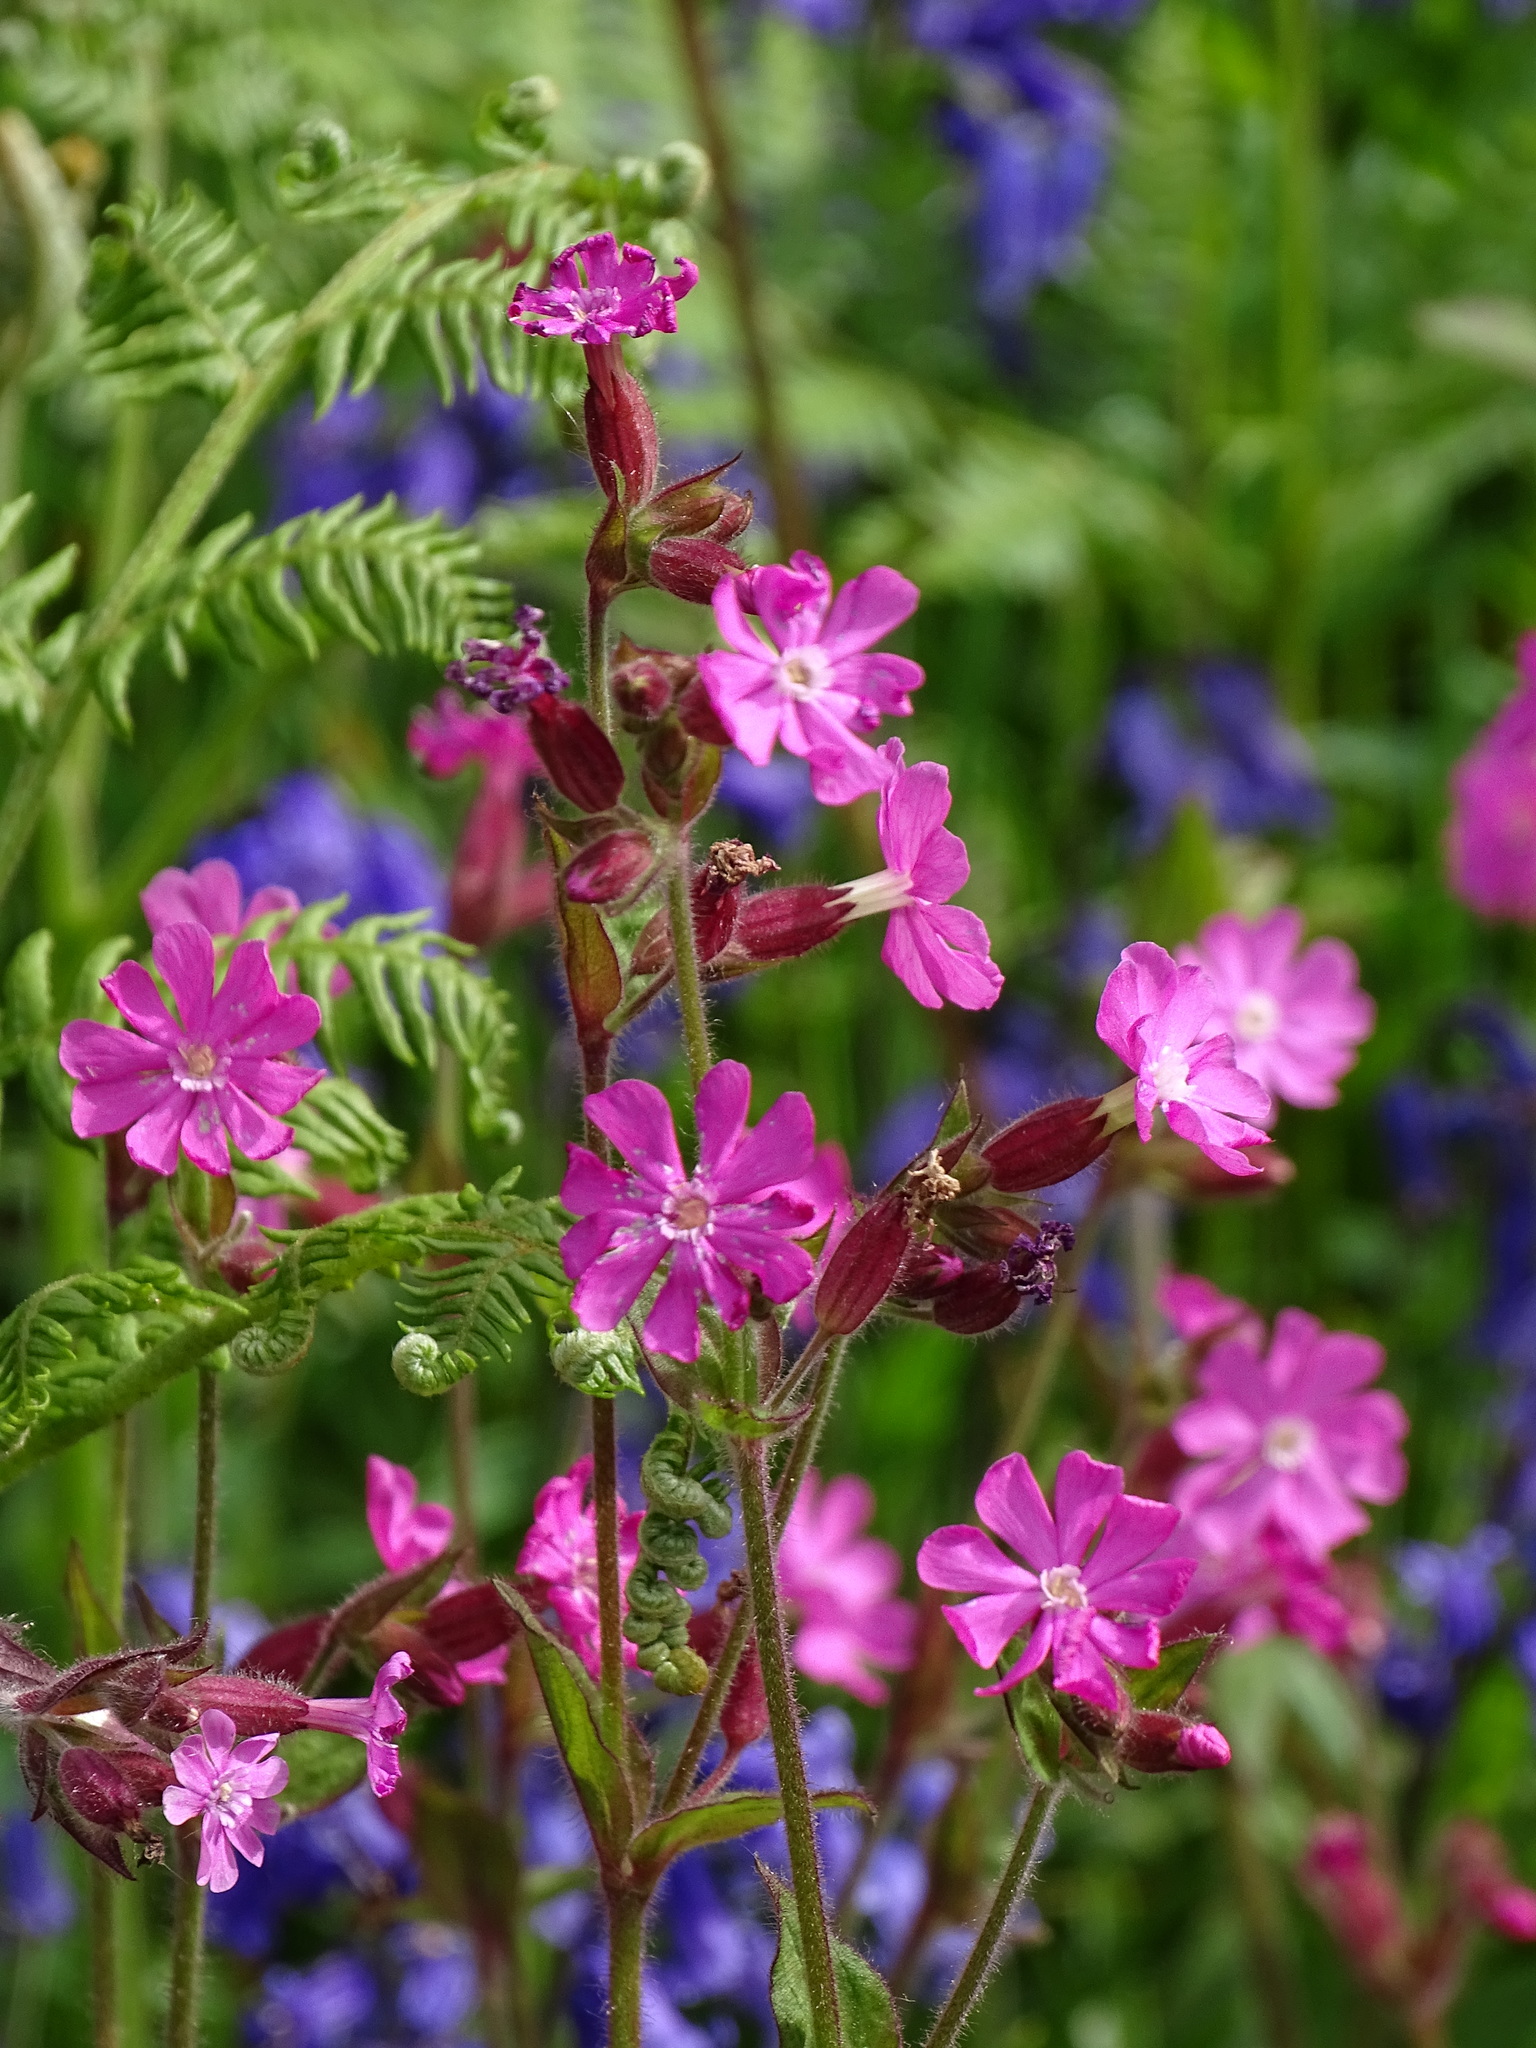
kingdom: Plantae
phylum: Tracheophyta
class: Magnoliopsida
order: Caryophyllales
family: Caryophyllaceae
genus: Silene
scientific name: Silene dioica
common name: Red campion
